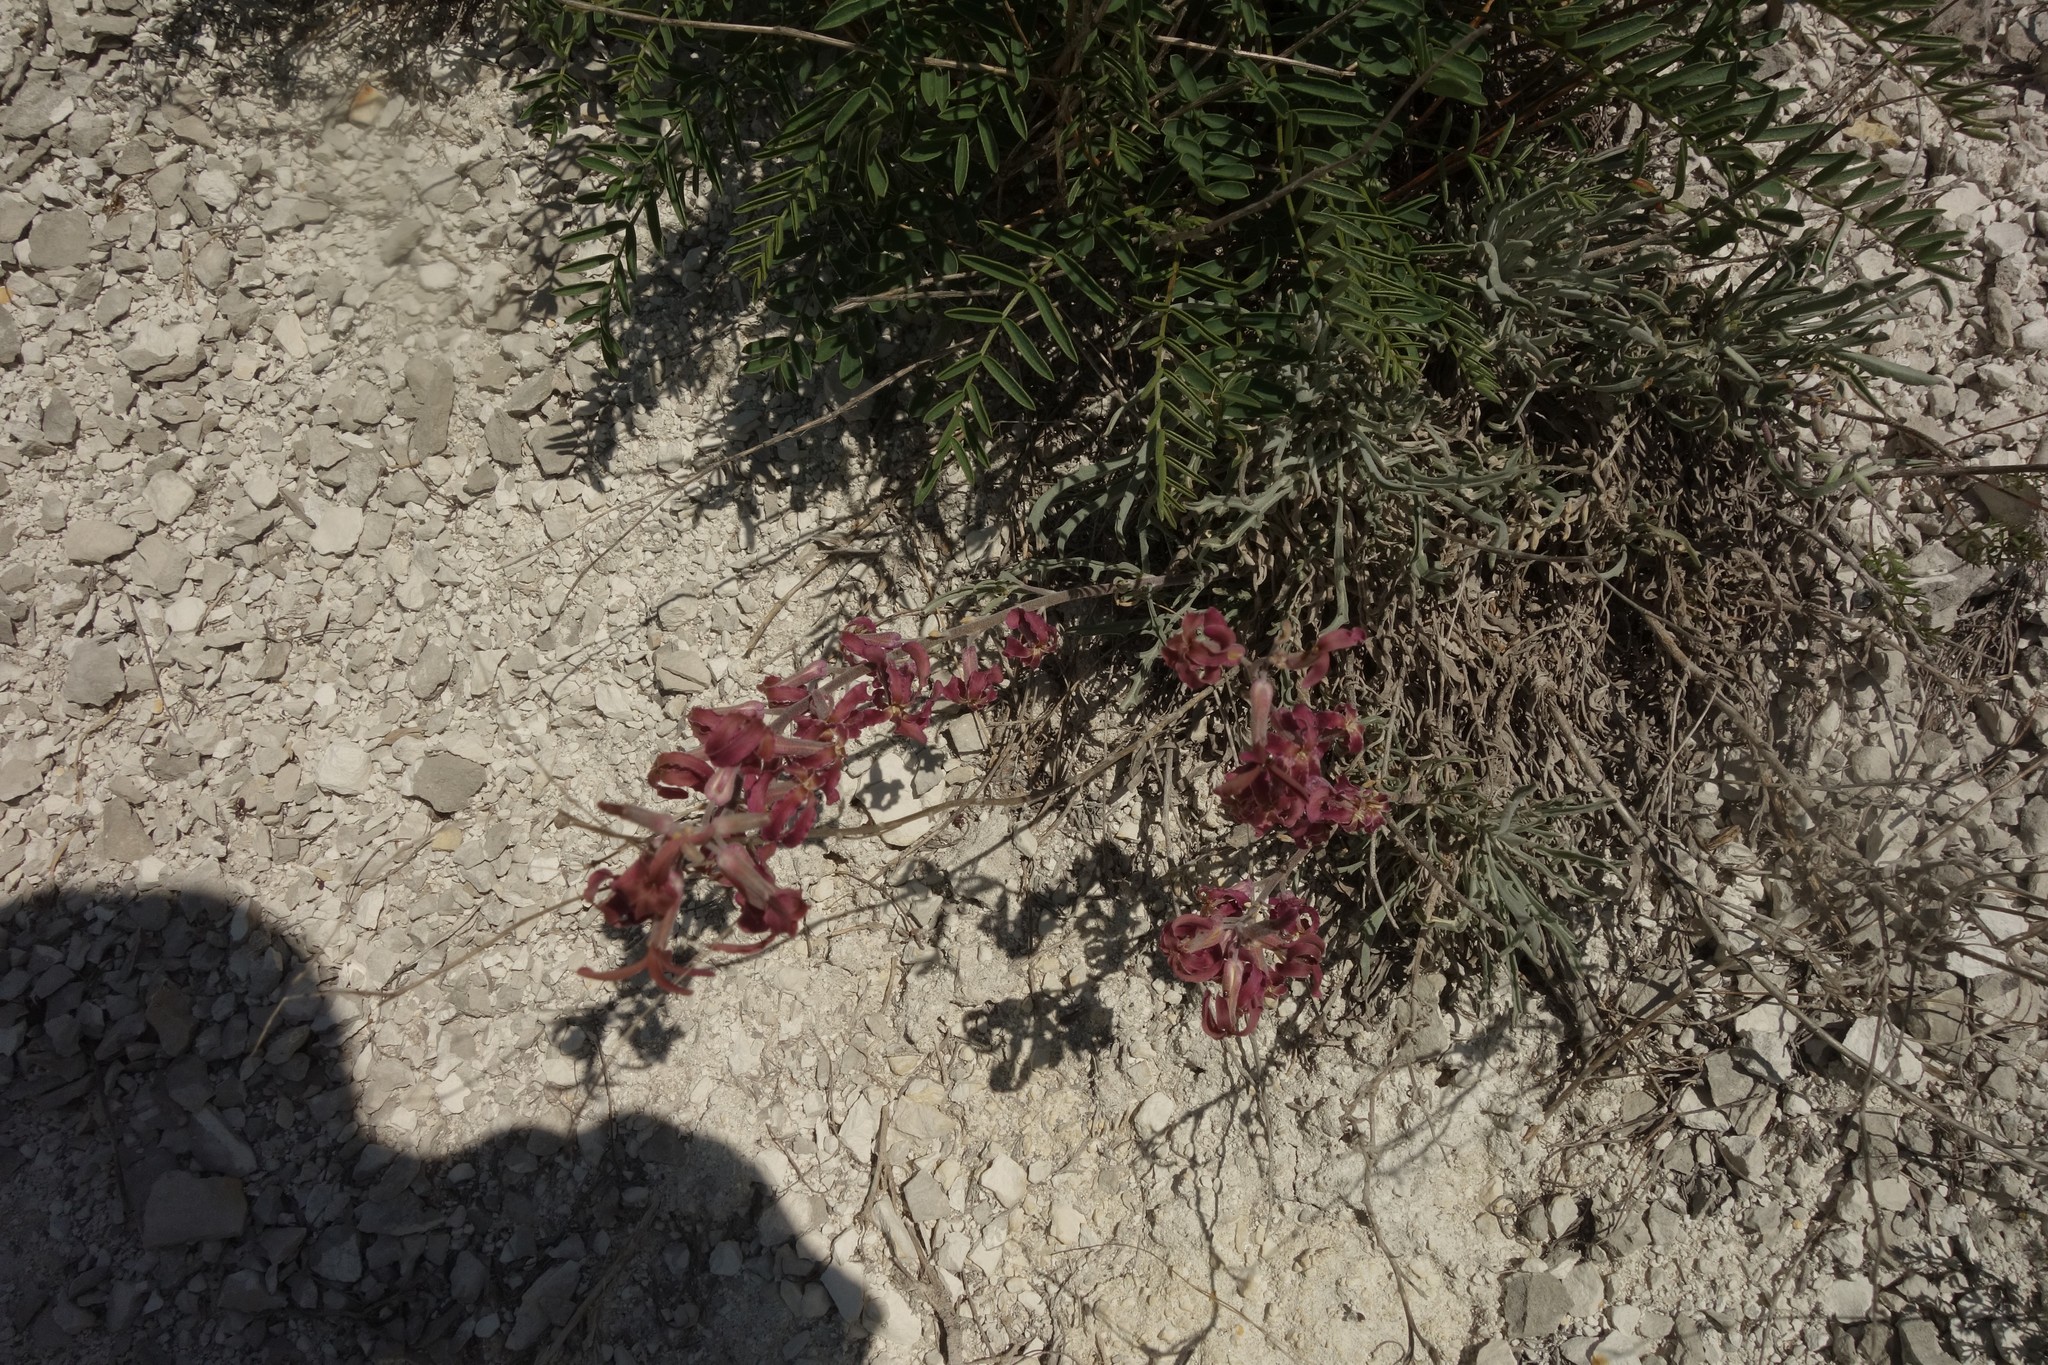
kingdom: Plantae
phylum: Tracheophyta
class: Magnoliopsida
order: Brassicales
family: Brassicaceae
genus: Matthiola
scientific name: Matthiola fragrans
